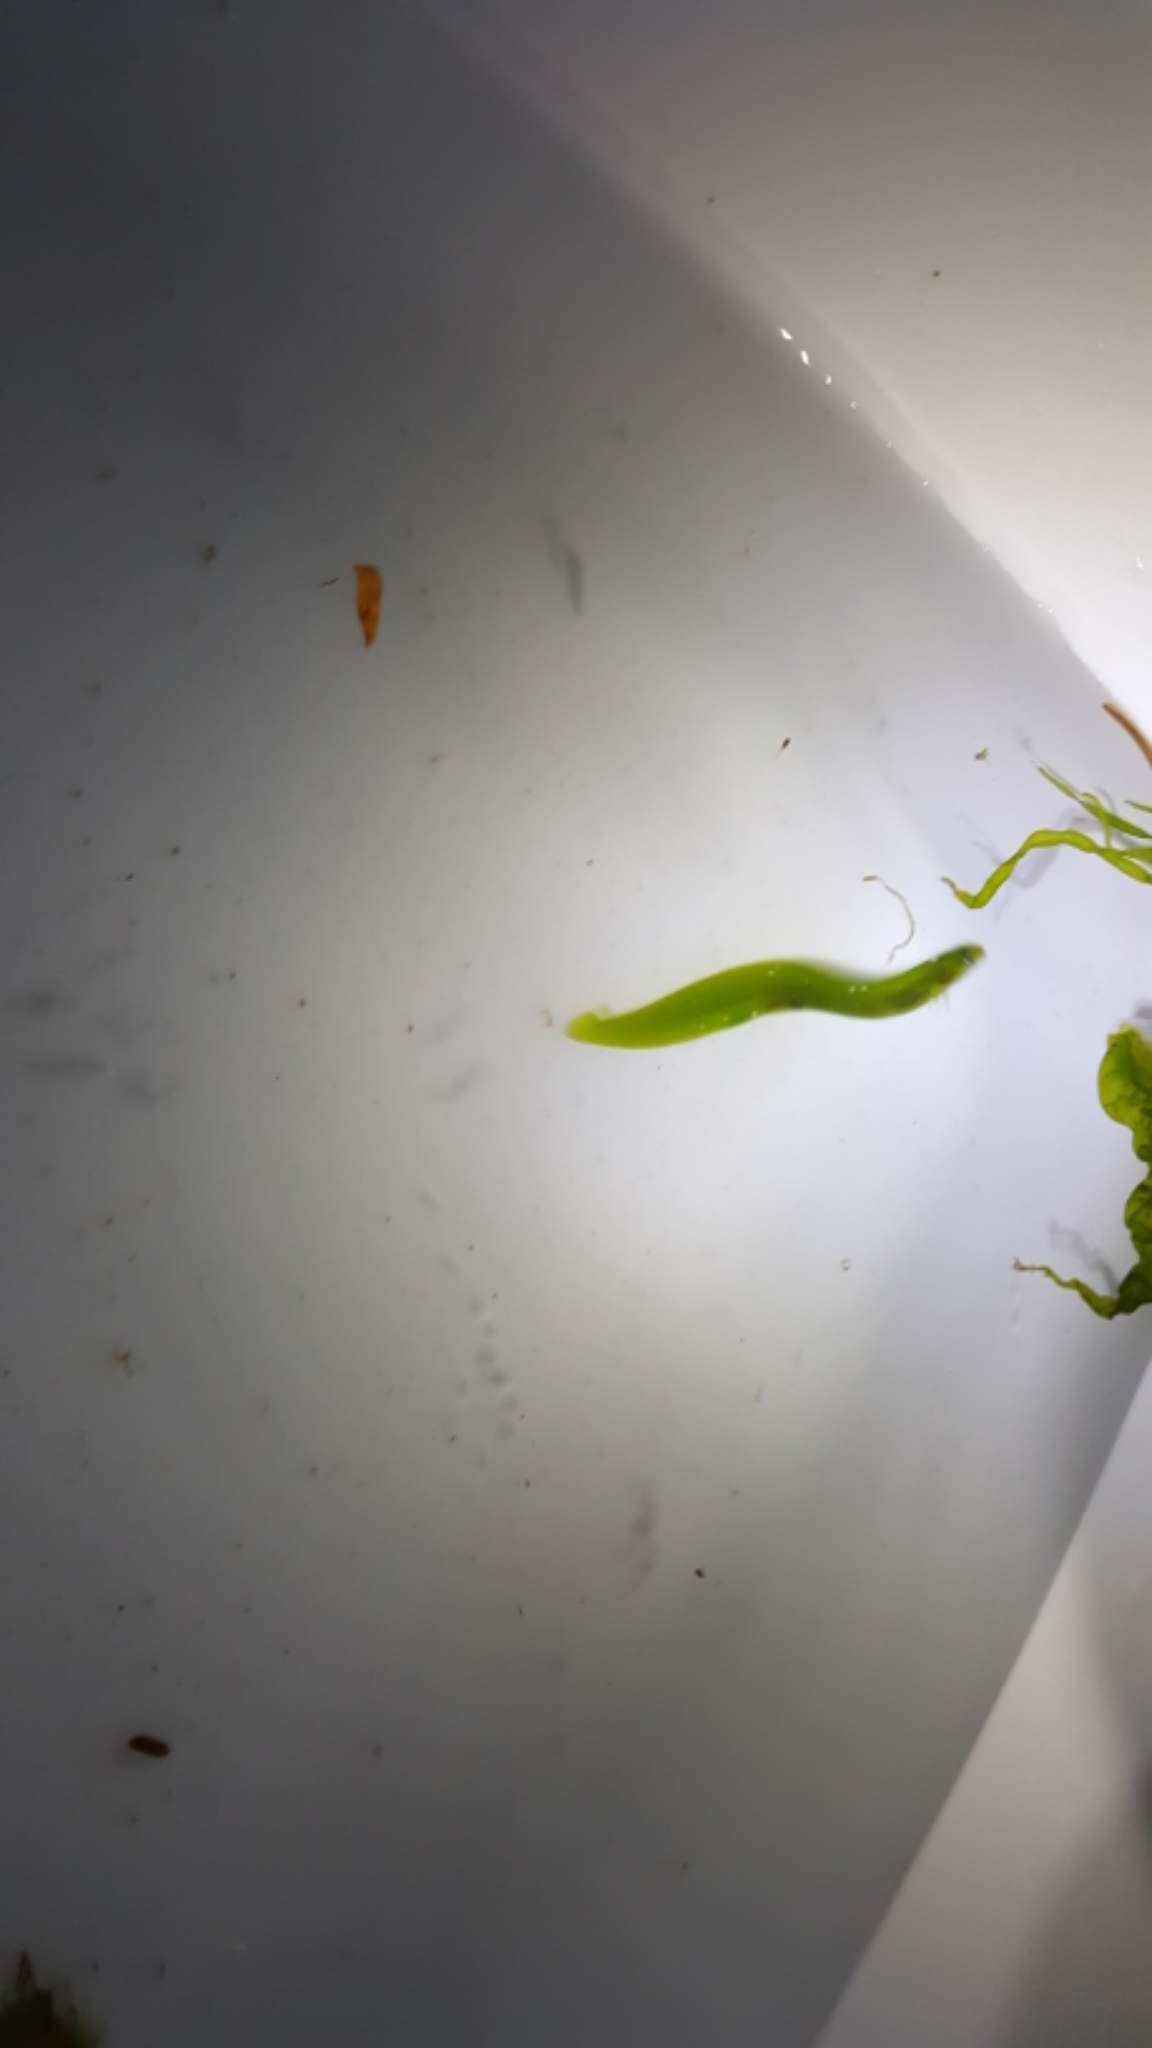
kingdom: Animalia
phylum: Chordata
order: Perciformes
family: Pholidae
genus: Apodichthys
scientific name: Apodichthys flavidus
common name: Penpoint gunnel
